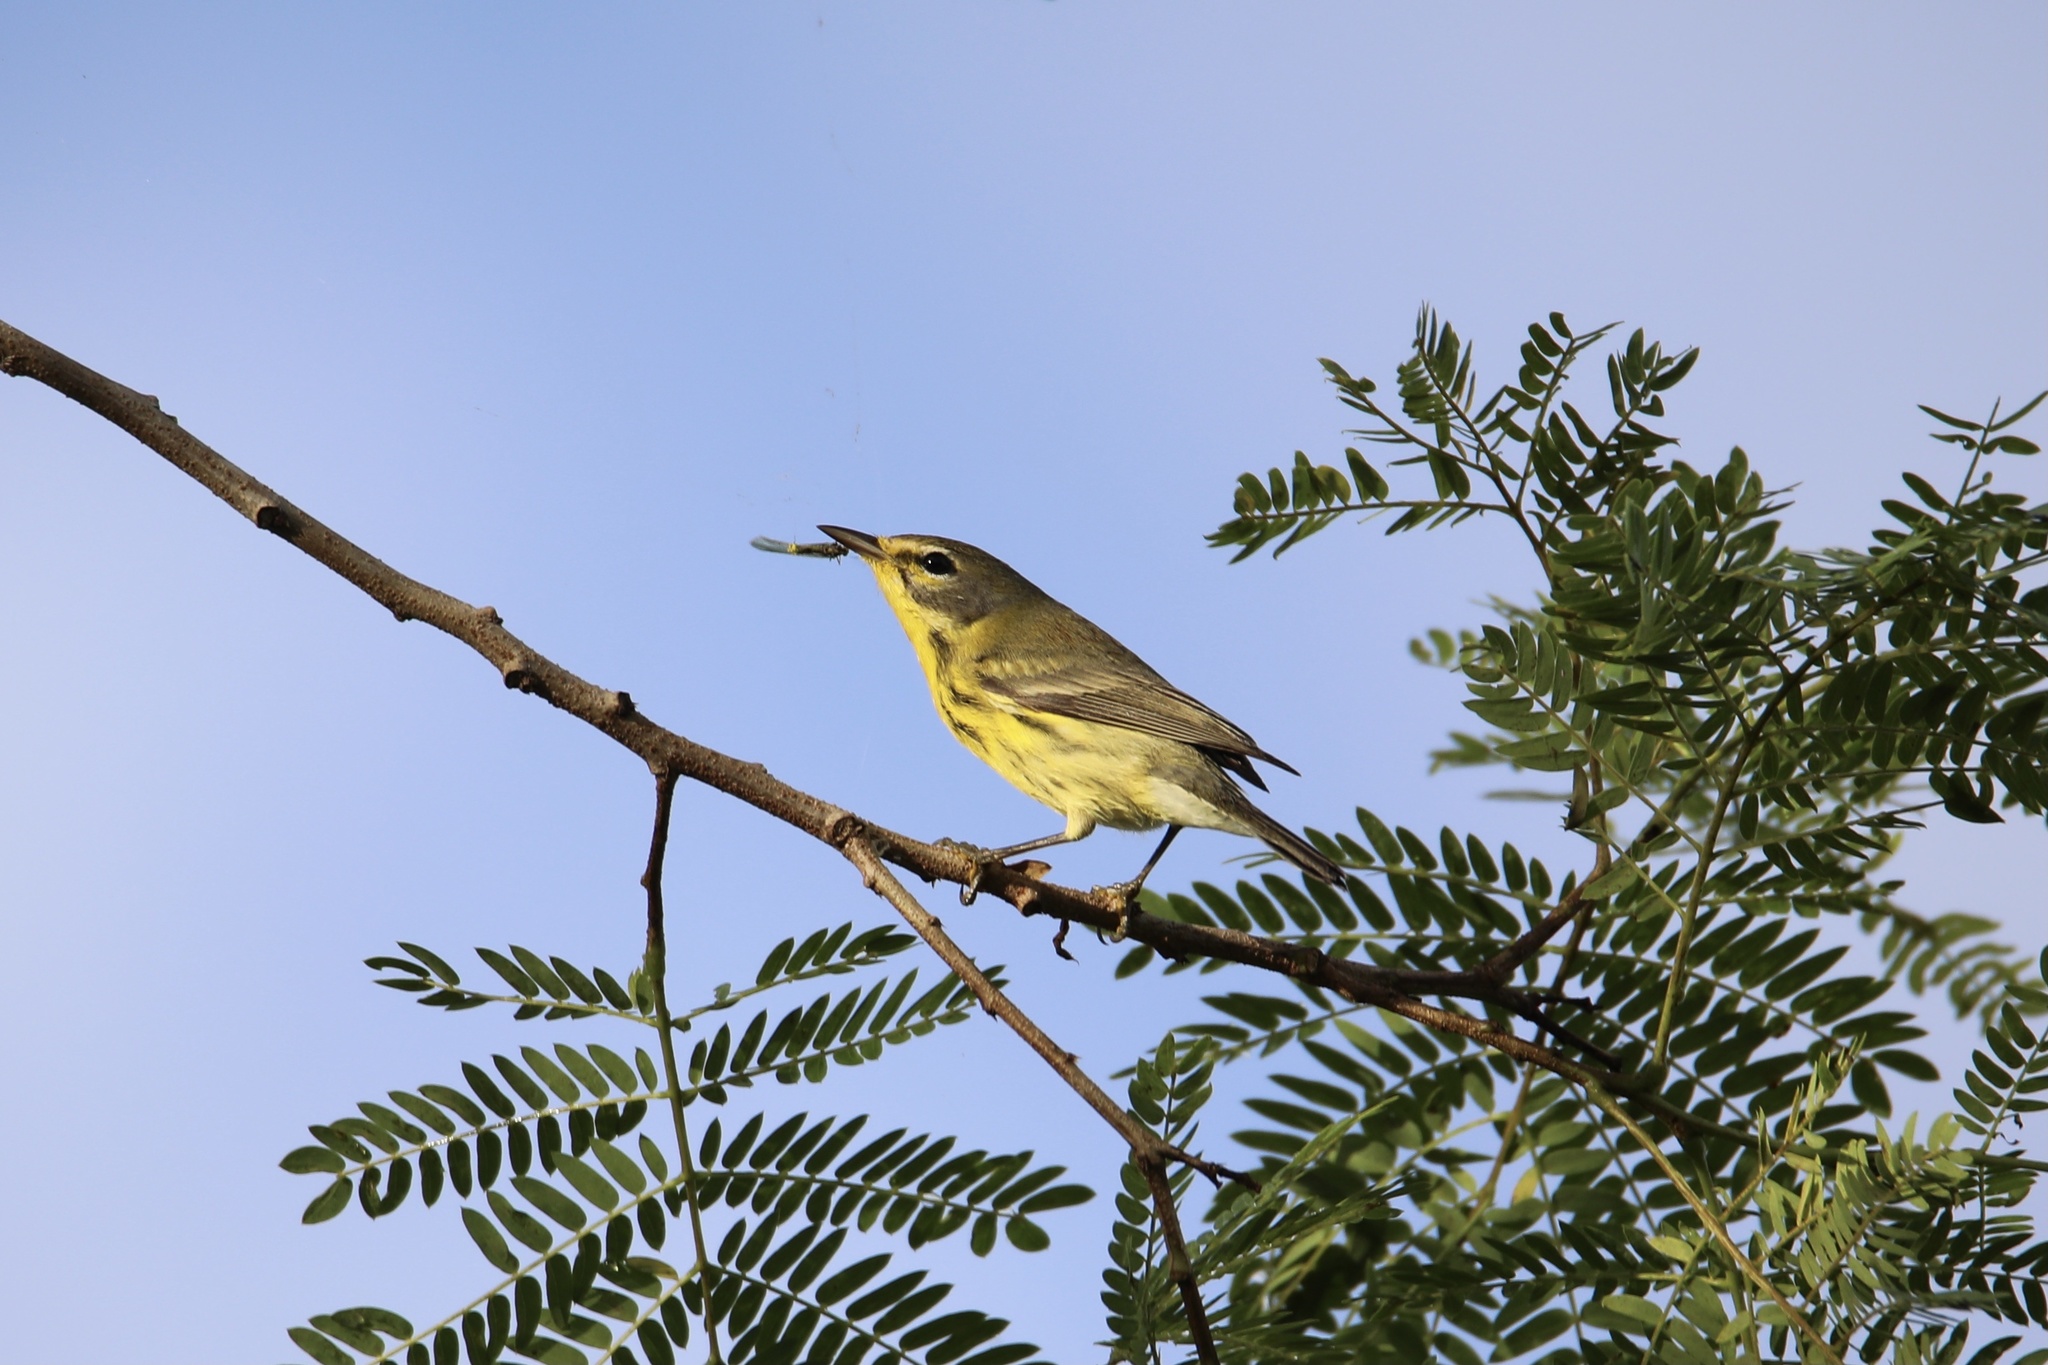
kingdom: Animalia
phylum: Chordata
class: Aves
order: Passeriformes
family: Parulidae
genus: Setophaga
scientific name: Setophaga discolor
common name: Prairie warbler
